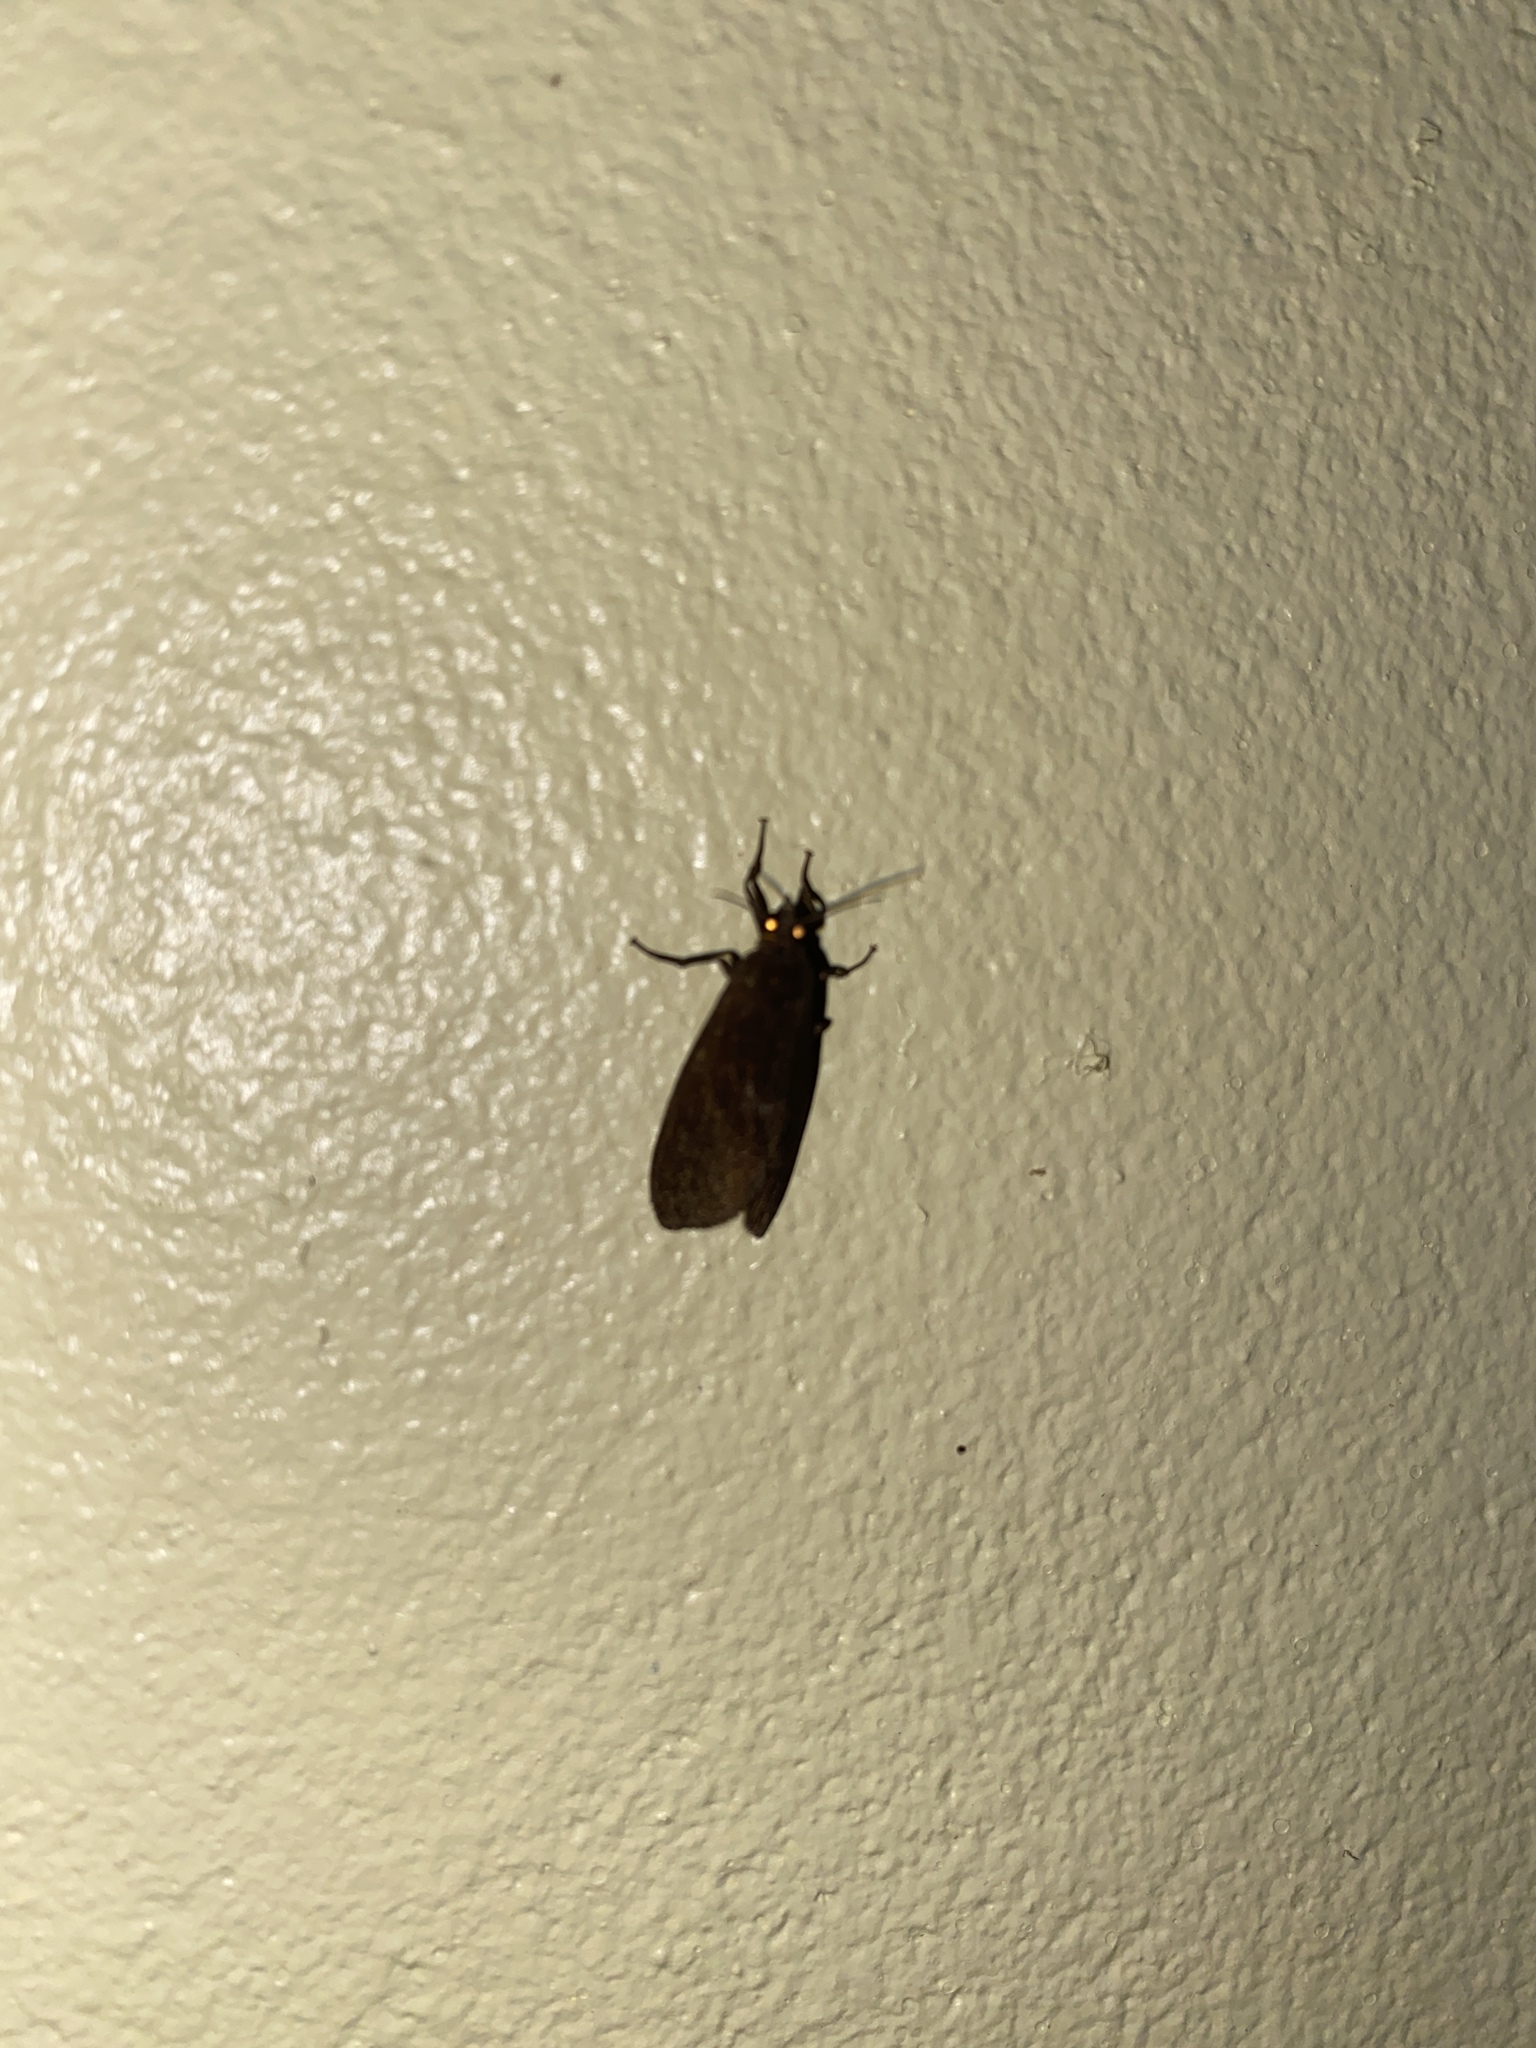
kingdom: Animalia
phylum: Arthropoda
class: Insecta
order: Lepidoptera
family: Erebidae
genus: Virbia
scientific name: Virbia medarda
